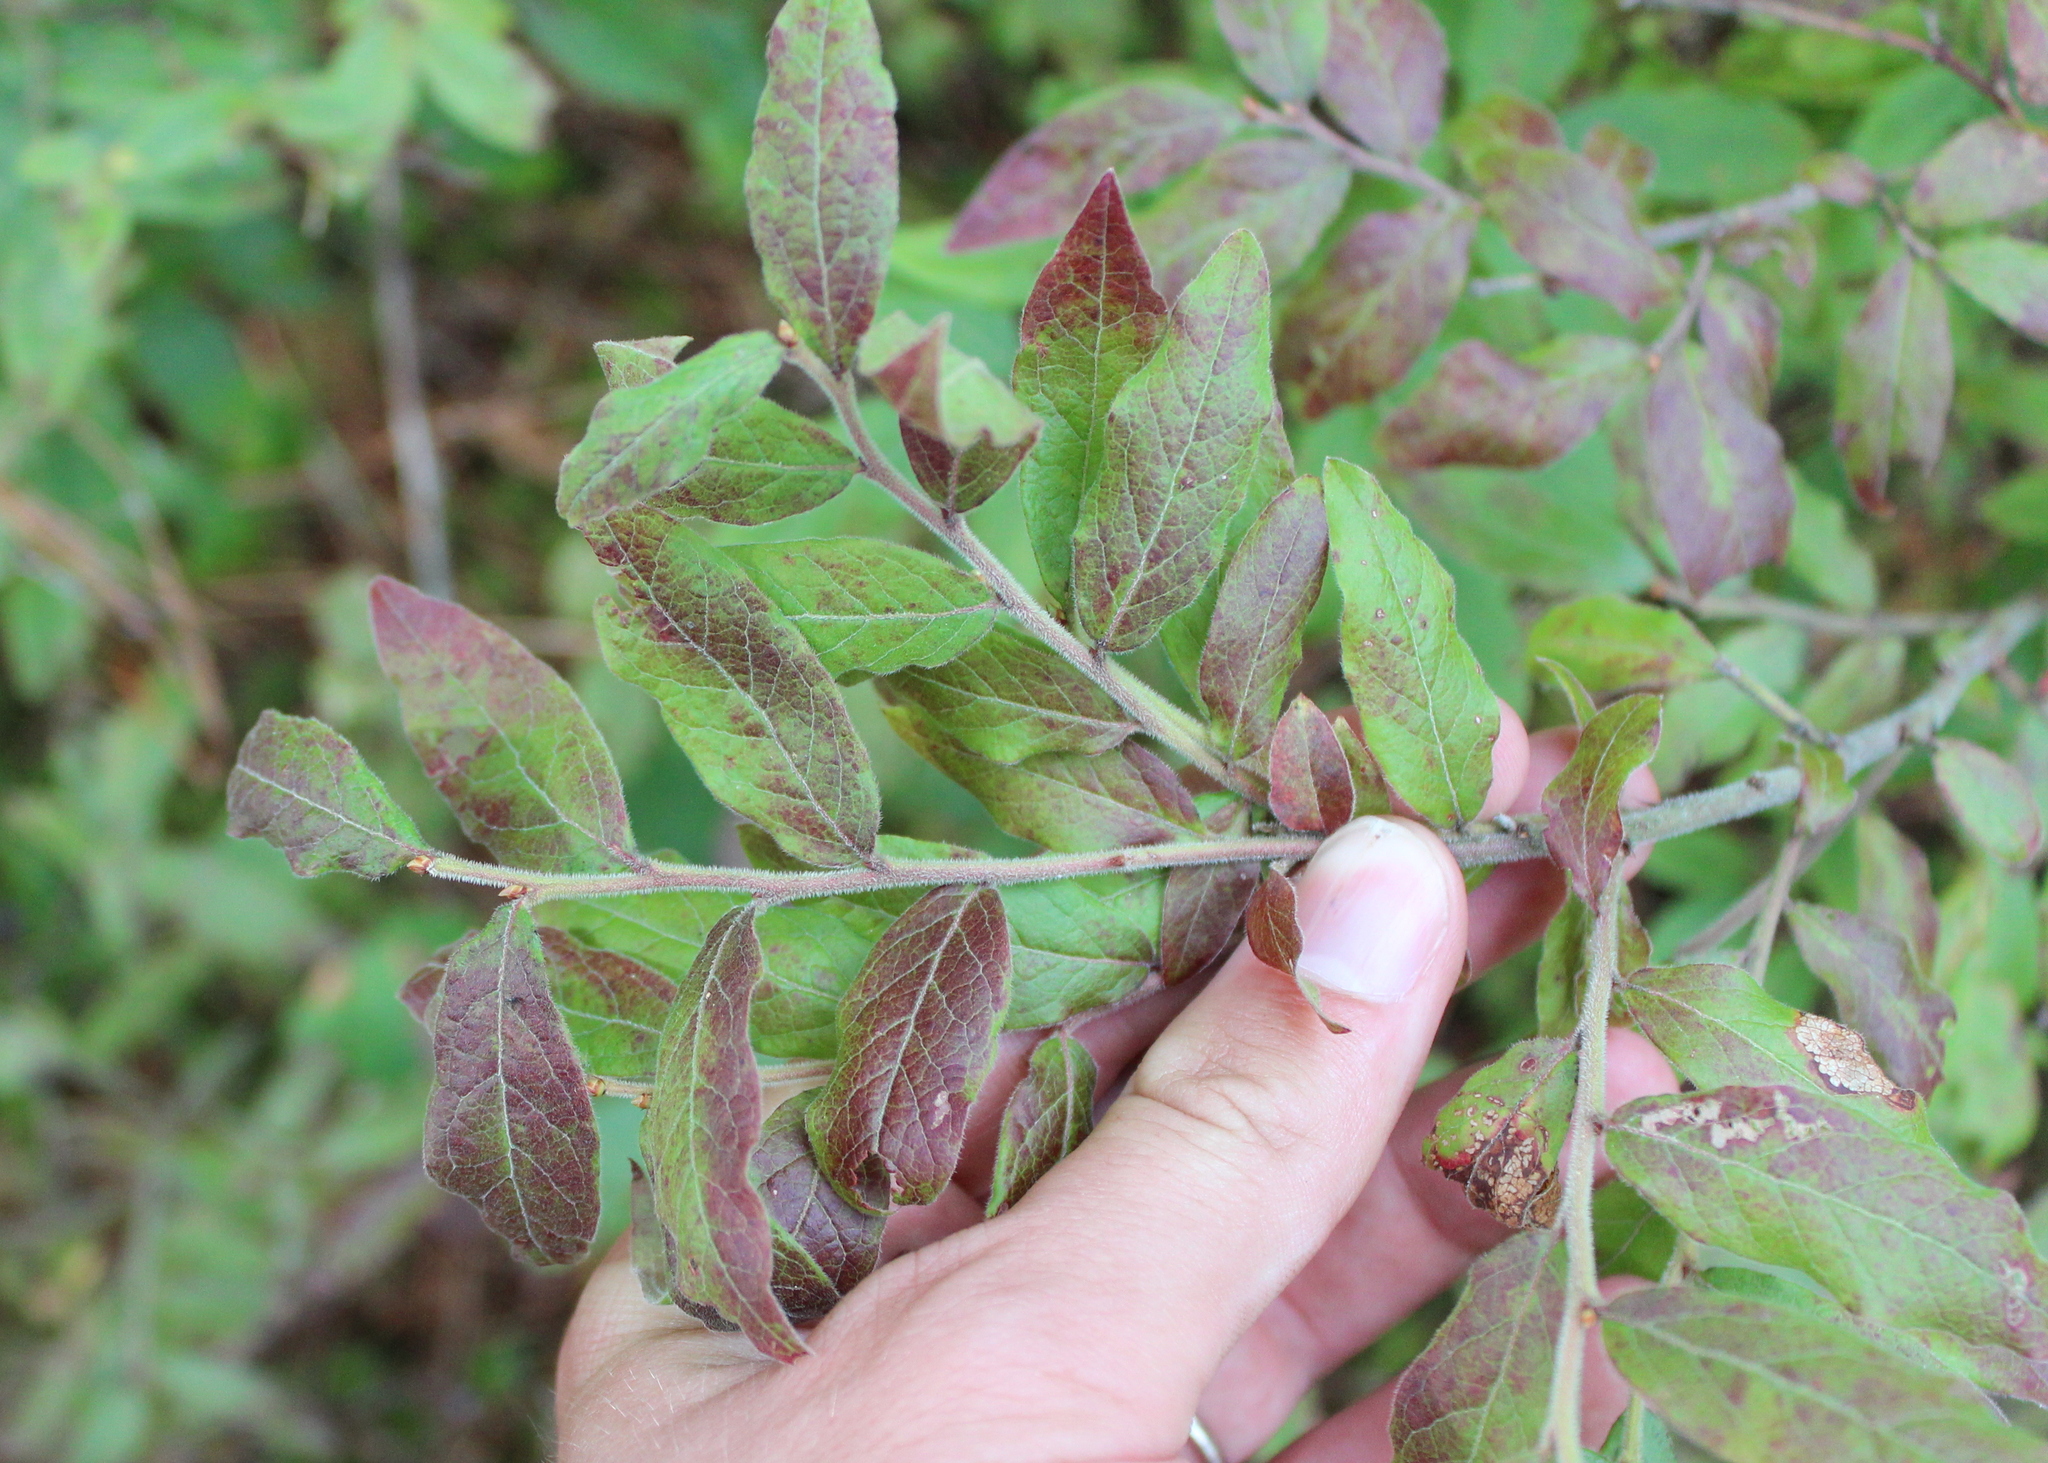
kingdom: Plantae
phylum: Tracheophyta
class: Magnoliopsida
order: Ericales
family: Ericaceae
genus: Vaccinium
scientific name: Vaccinium myrtilloides
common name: Canada blueberry
